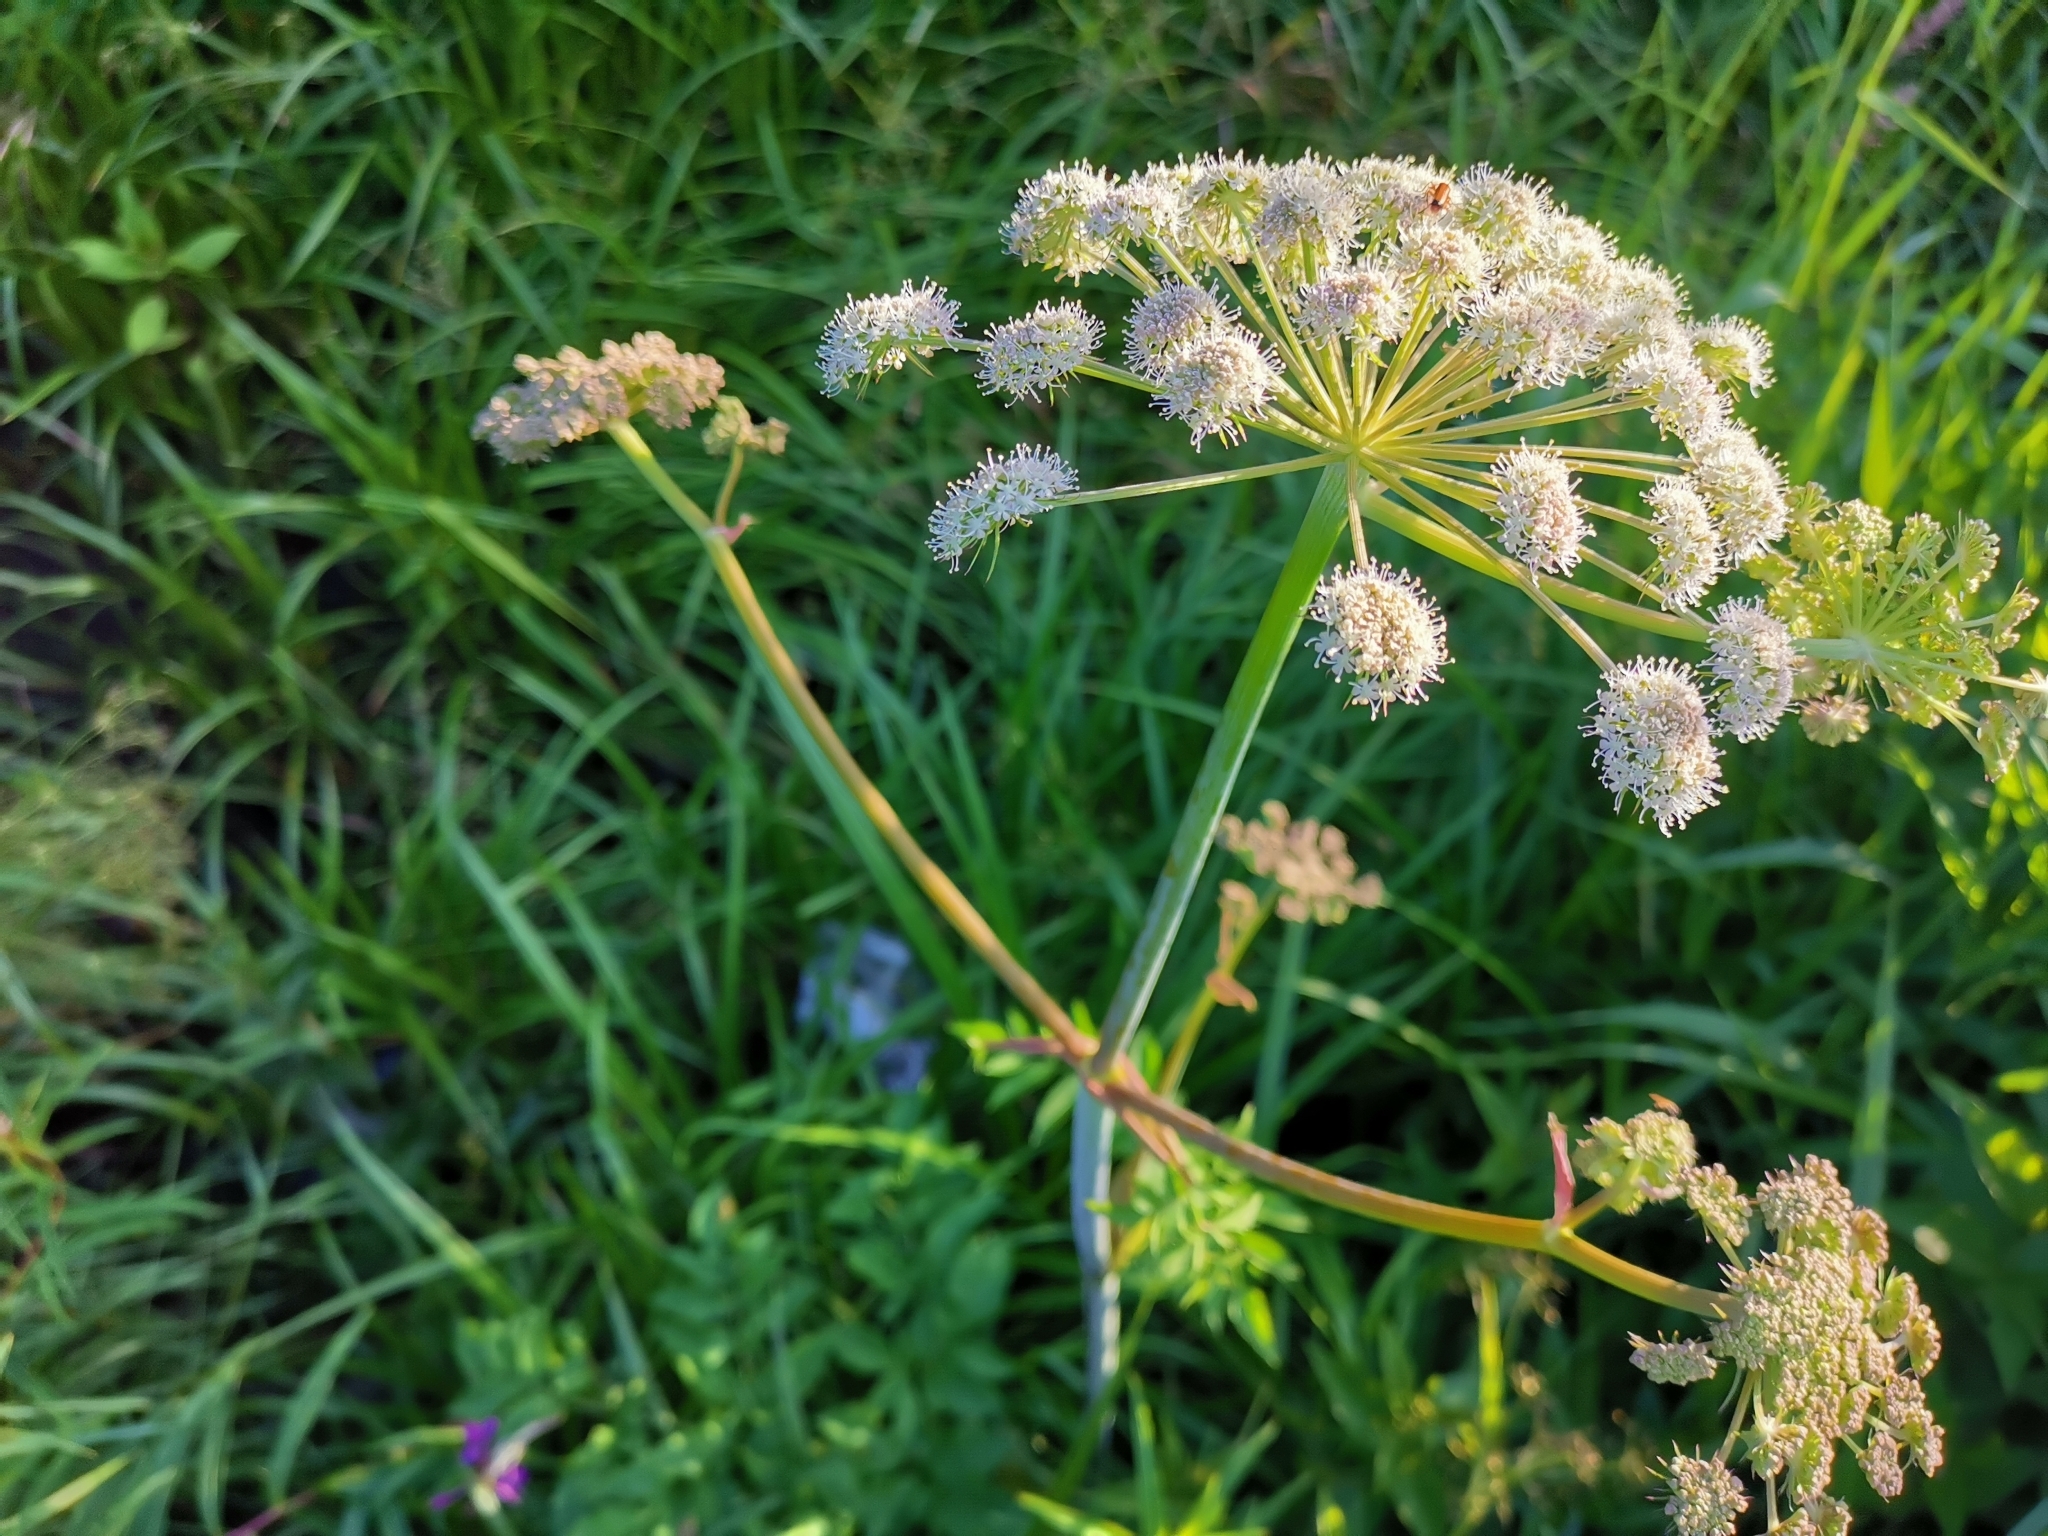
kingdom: Plantae
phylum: Tracheophyta
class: Magnoliopsida
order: Apiales
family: Apiaceae
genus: Angelica
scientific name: Angelica sylvestris
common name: Wild angelica
